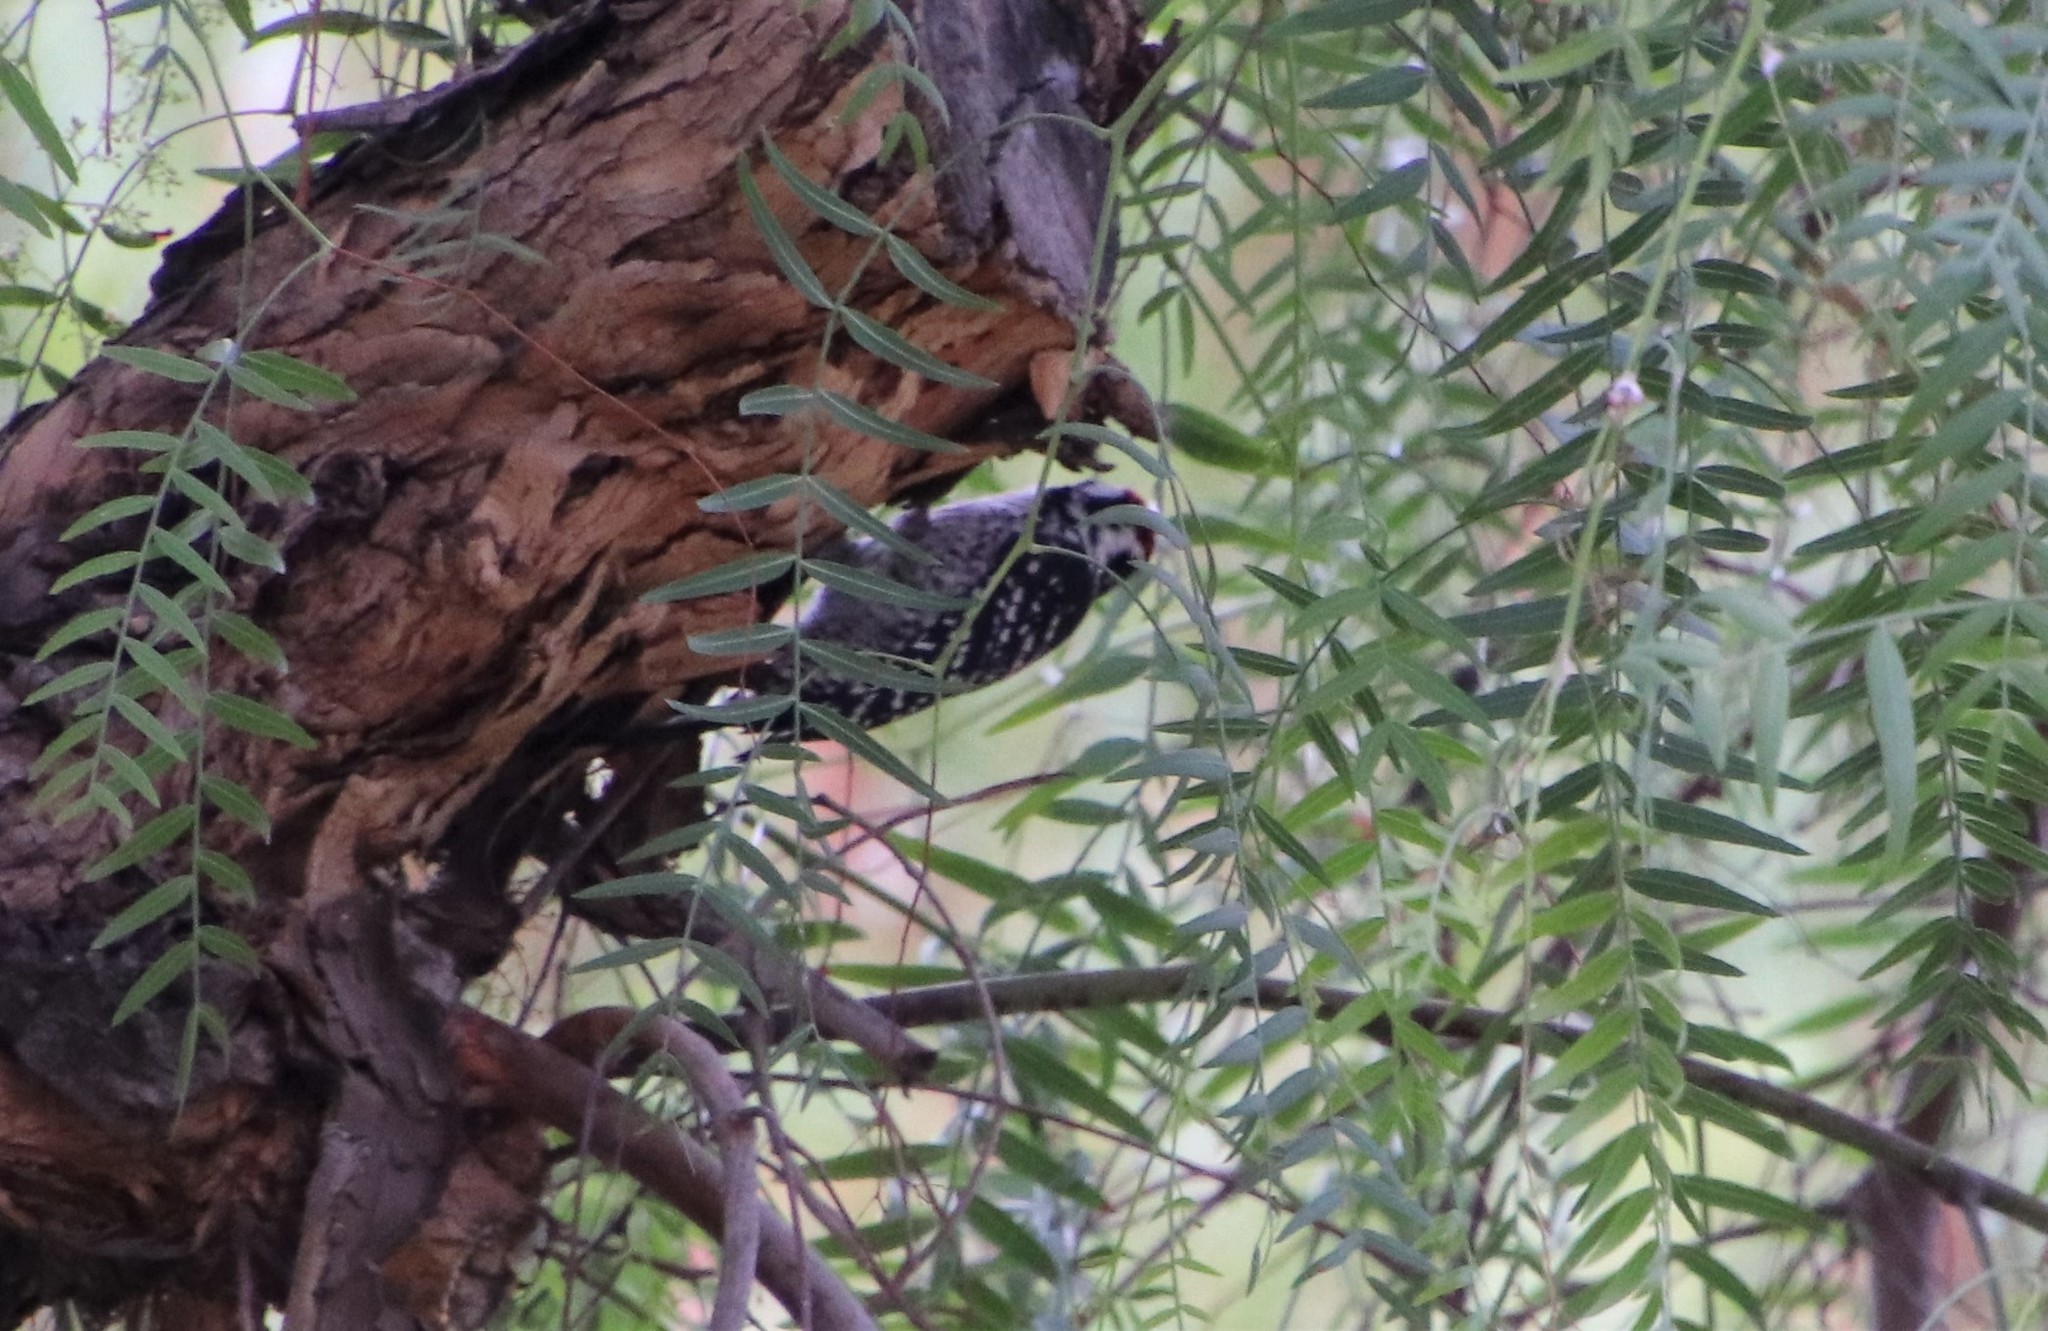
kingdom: Animalia
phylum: Chordata
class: Aves
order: Piciformes
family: Picidae
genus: Dryobates
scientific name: Dryobates nuttallii
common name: Nuttall's woodpecker
